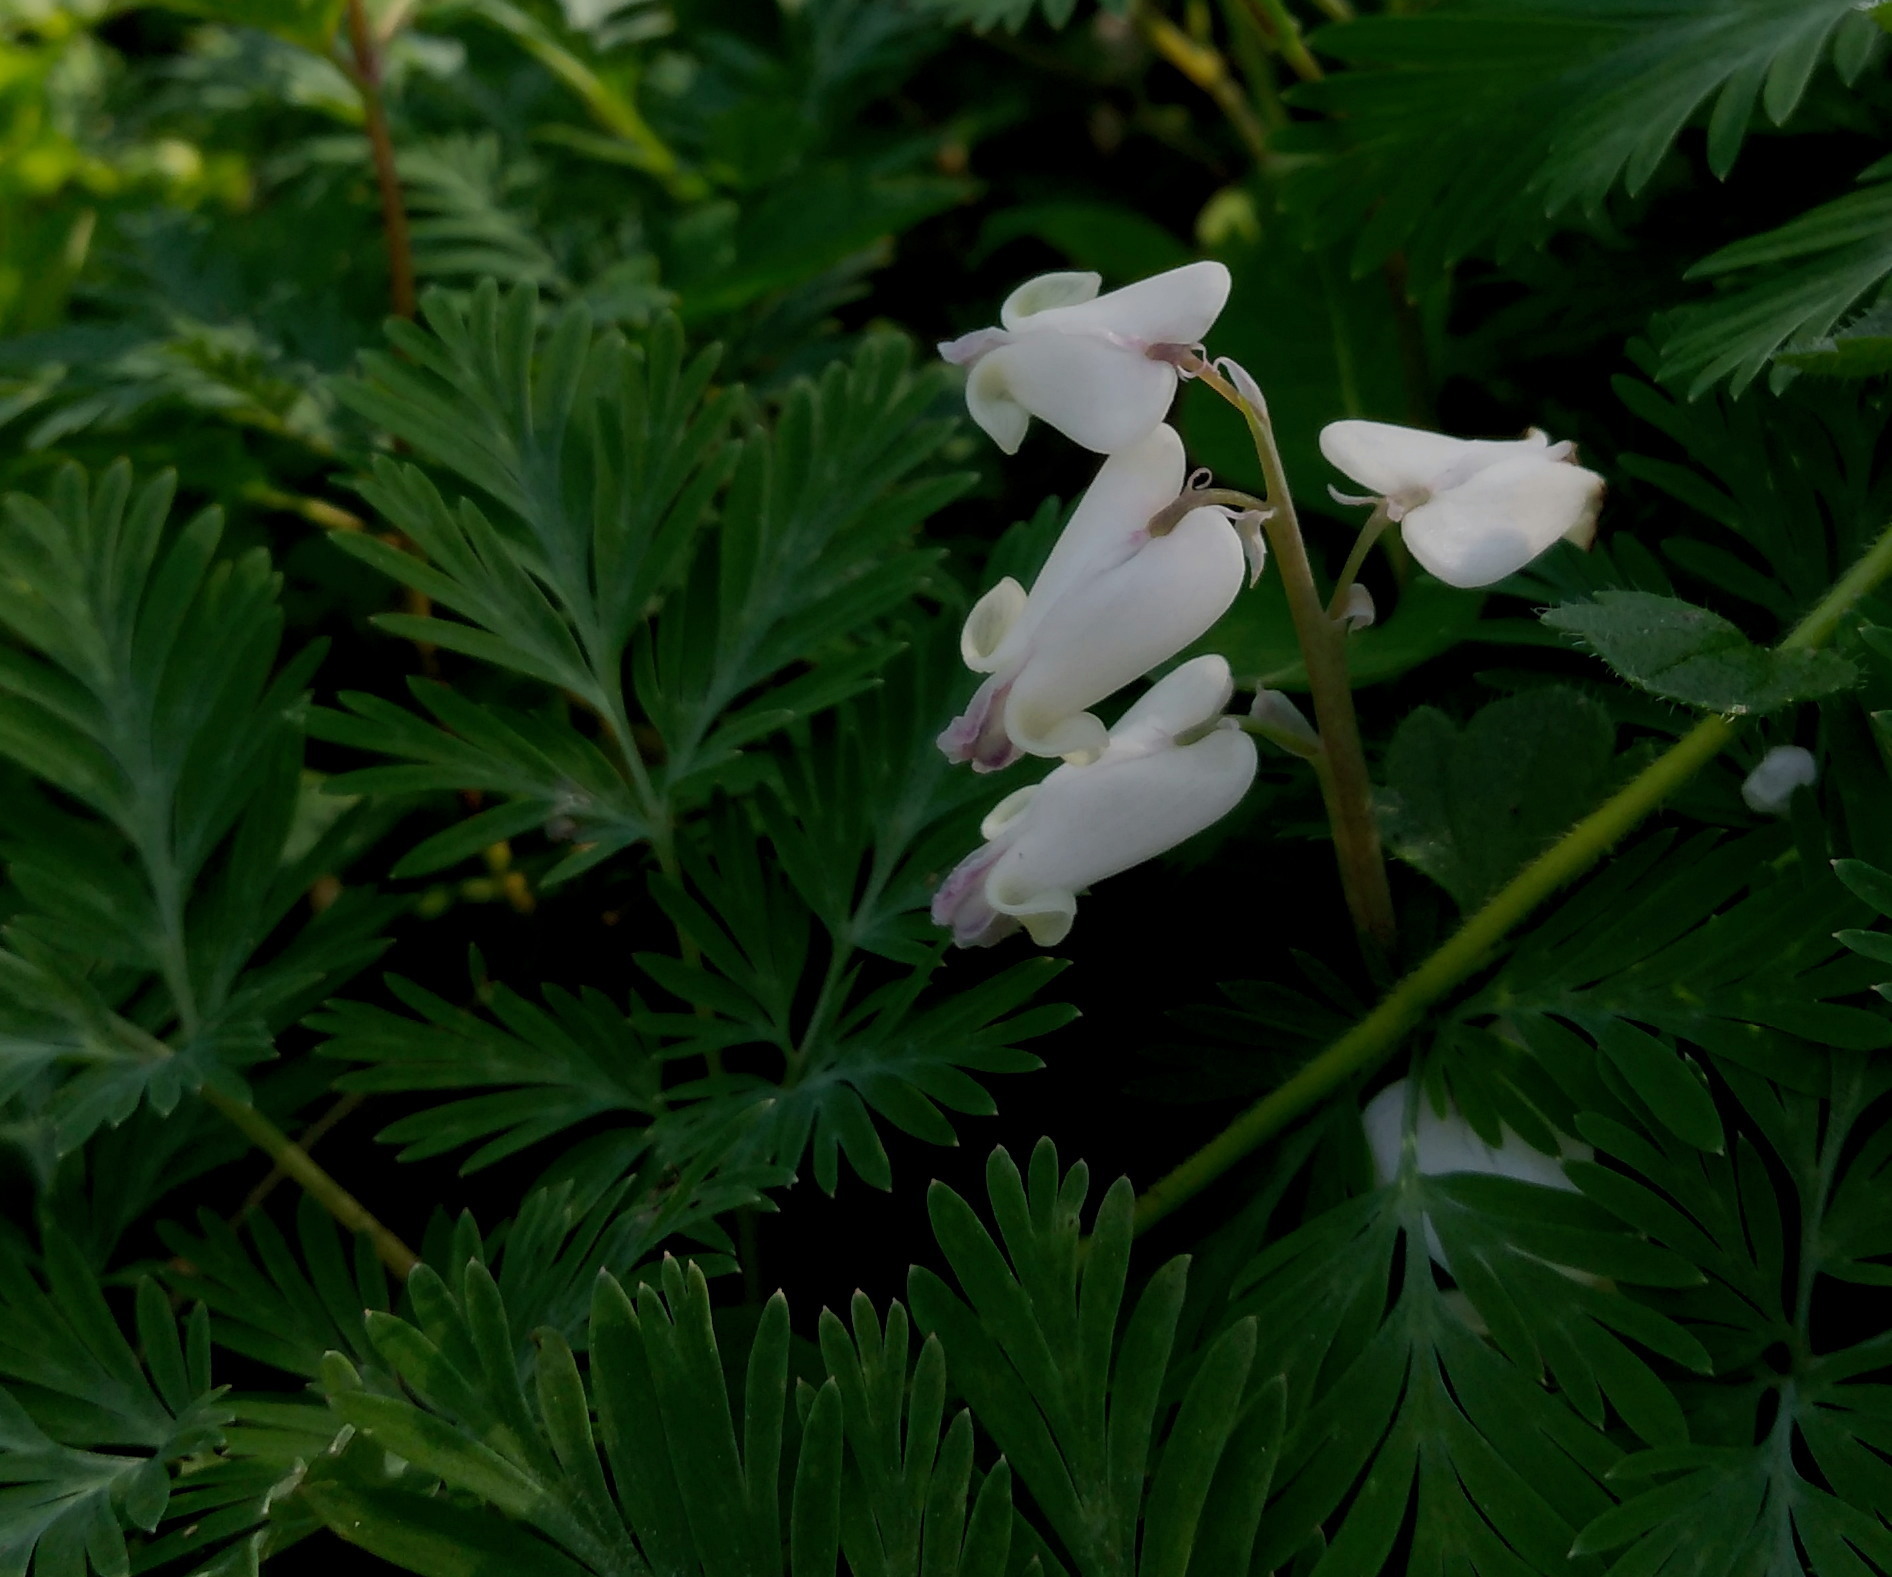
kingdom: Plantae
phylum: Tracheophyta
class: Magnoliopsida
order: Ranunculales
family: Papaveraceae
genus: Dicentra
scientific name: Dicentra canadensis
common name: Squirrel-corn
